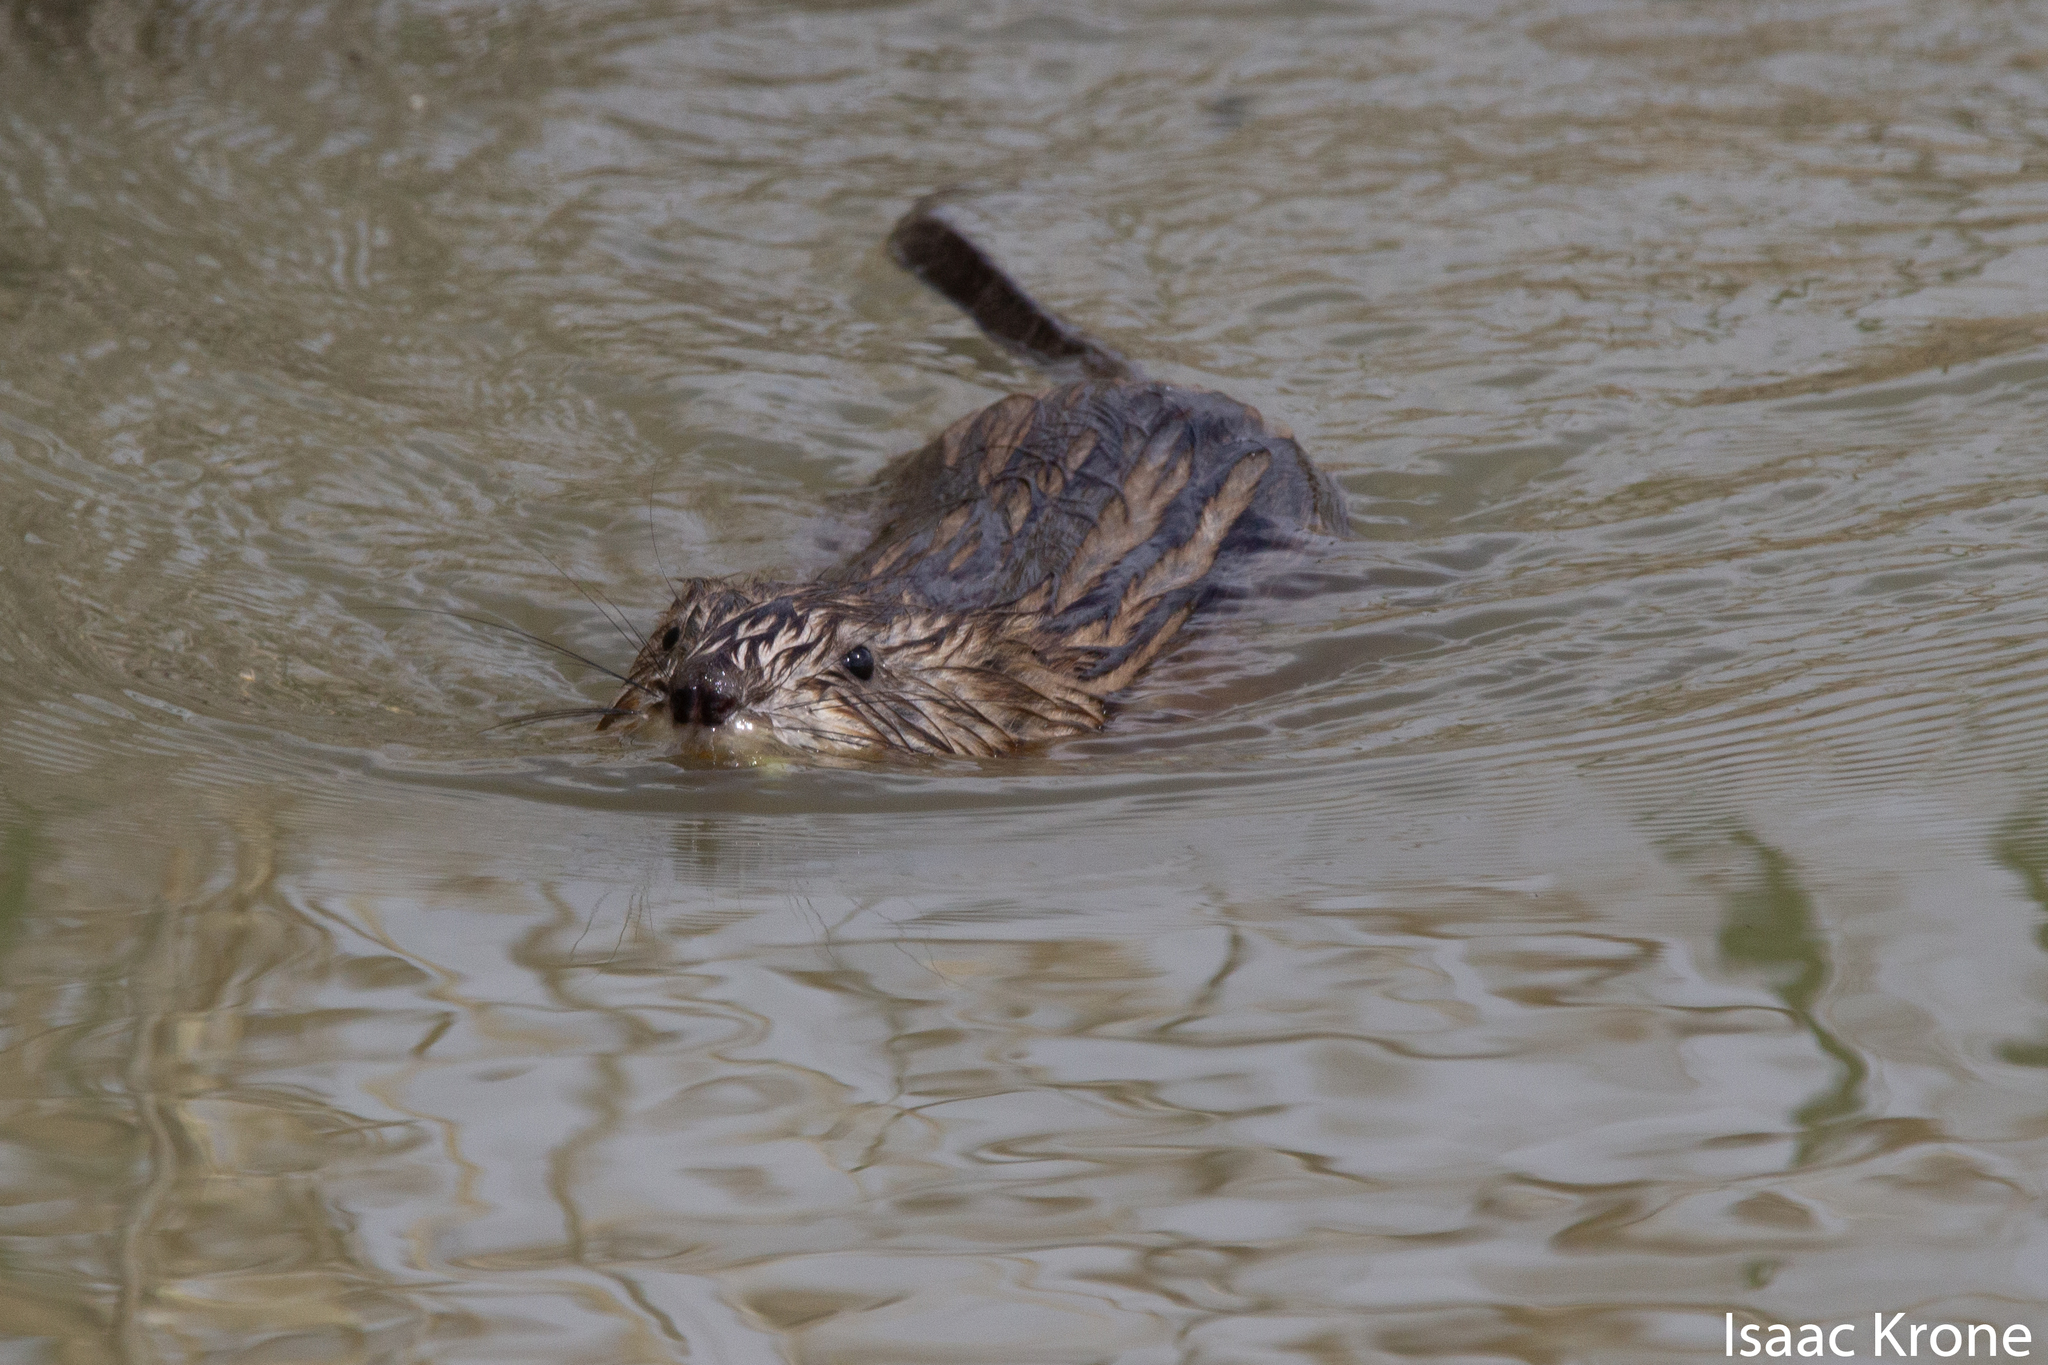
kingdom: Animalia
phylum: Chordata
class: Mammalia
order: Rodentia
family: Cricetidae
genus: Ondatra
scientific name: Ondatra zibethicus
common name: Muskrat
